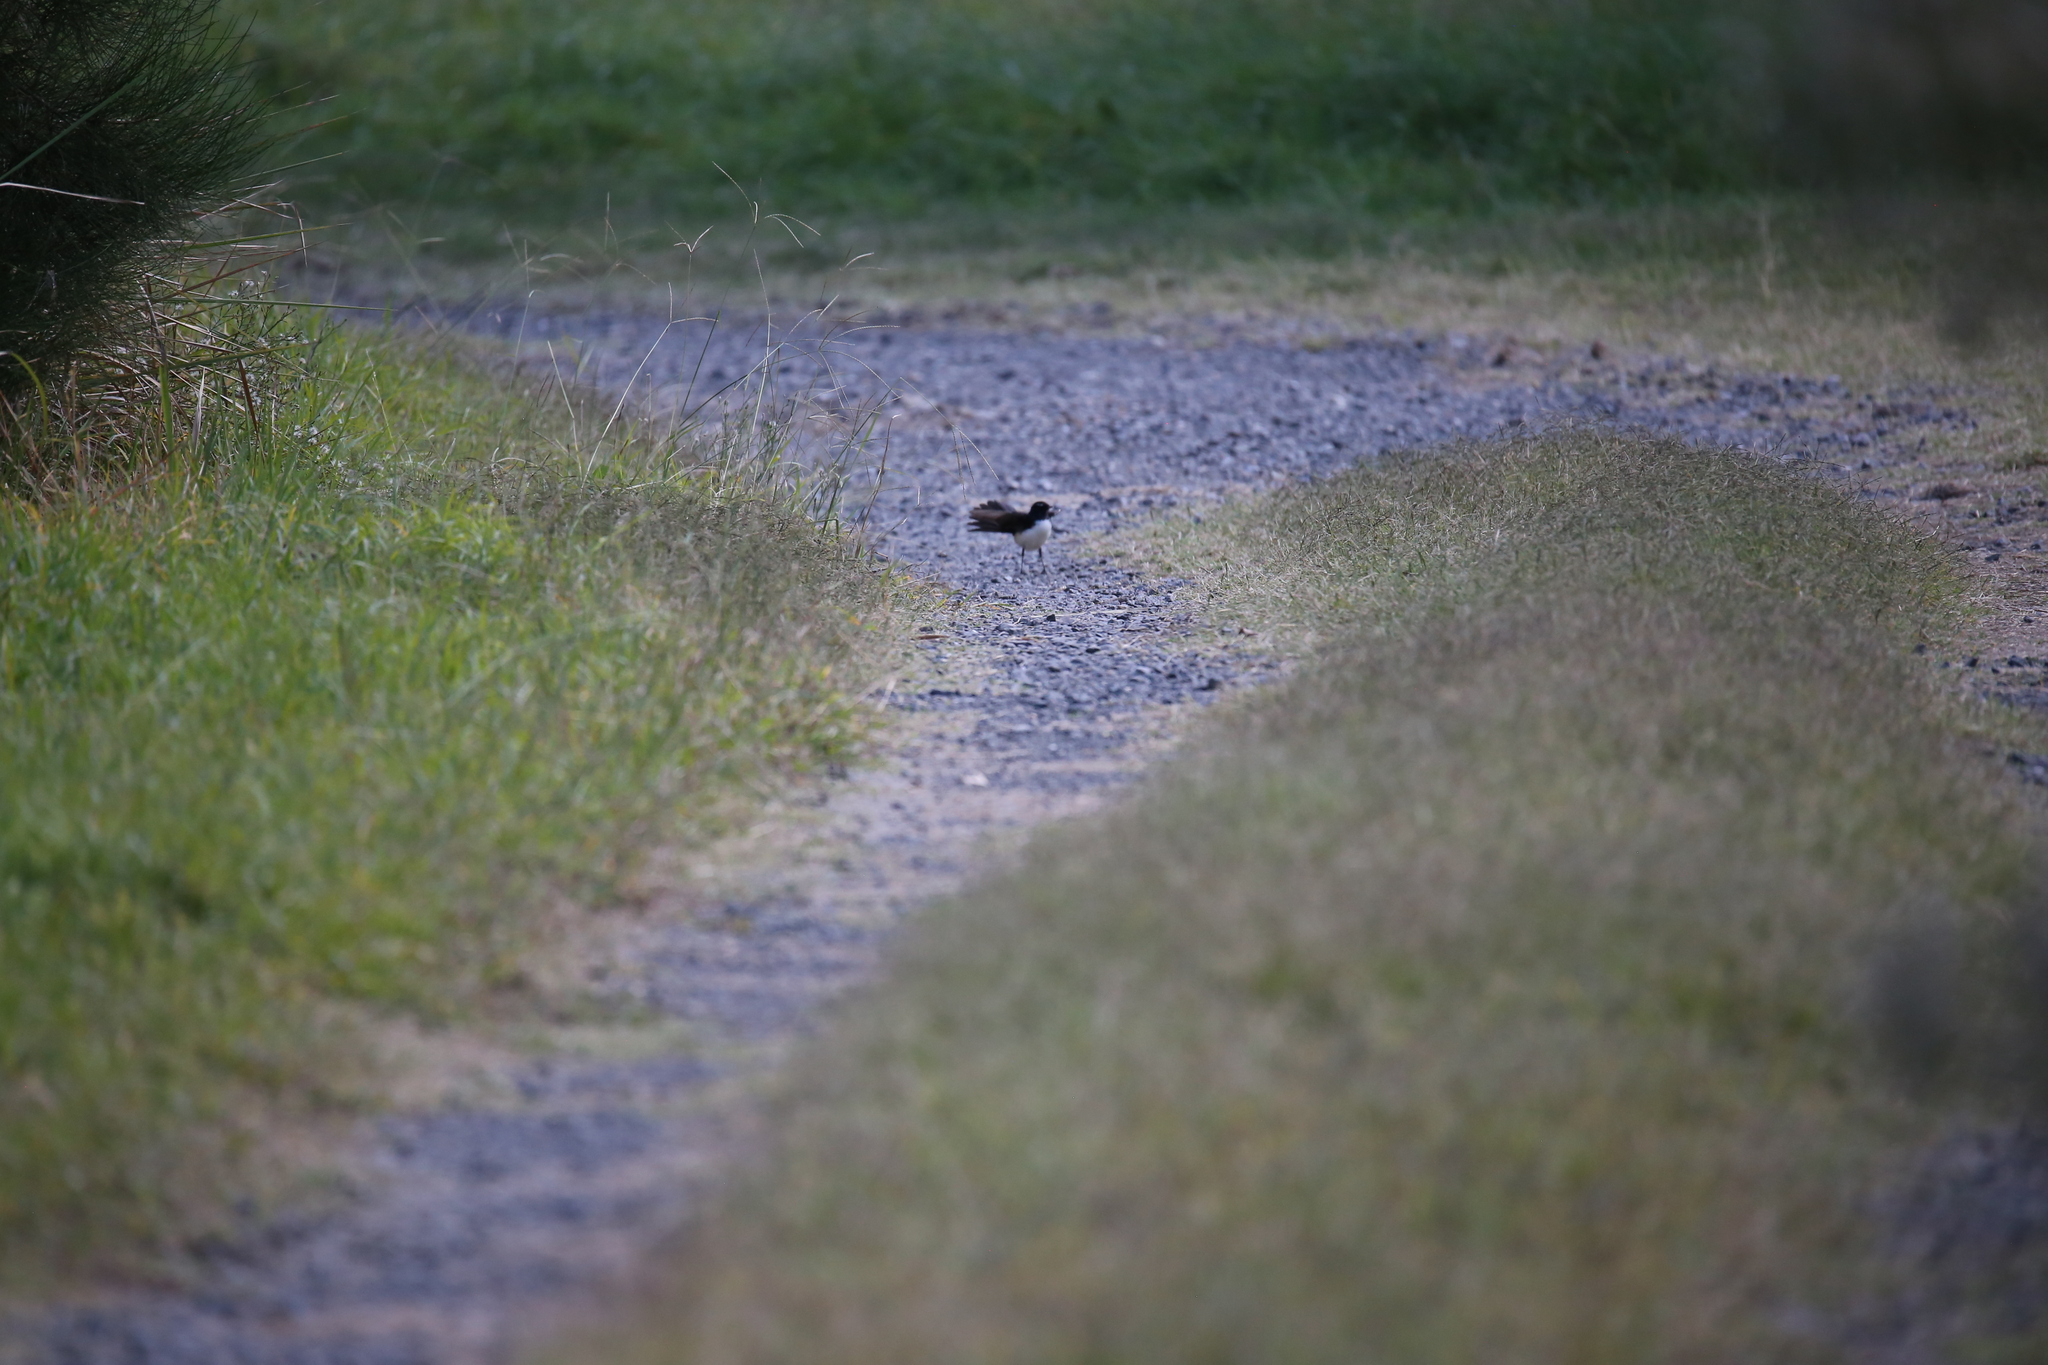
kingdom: Animalia
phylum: Chordata
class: Aves
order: Passeriformes
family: Rhipiduridae
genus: Rhipidura
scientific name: Rhipidura leucophrys
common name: Willie wagtail
